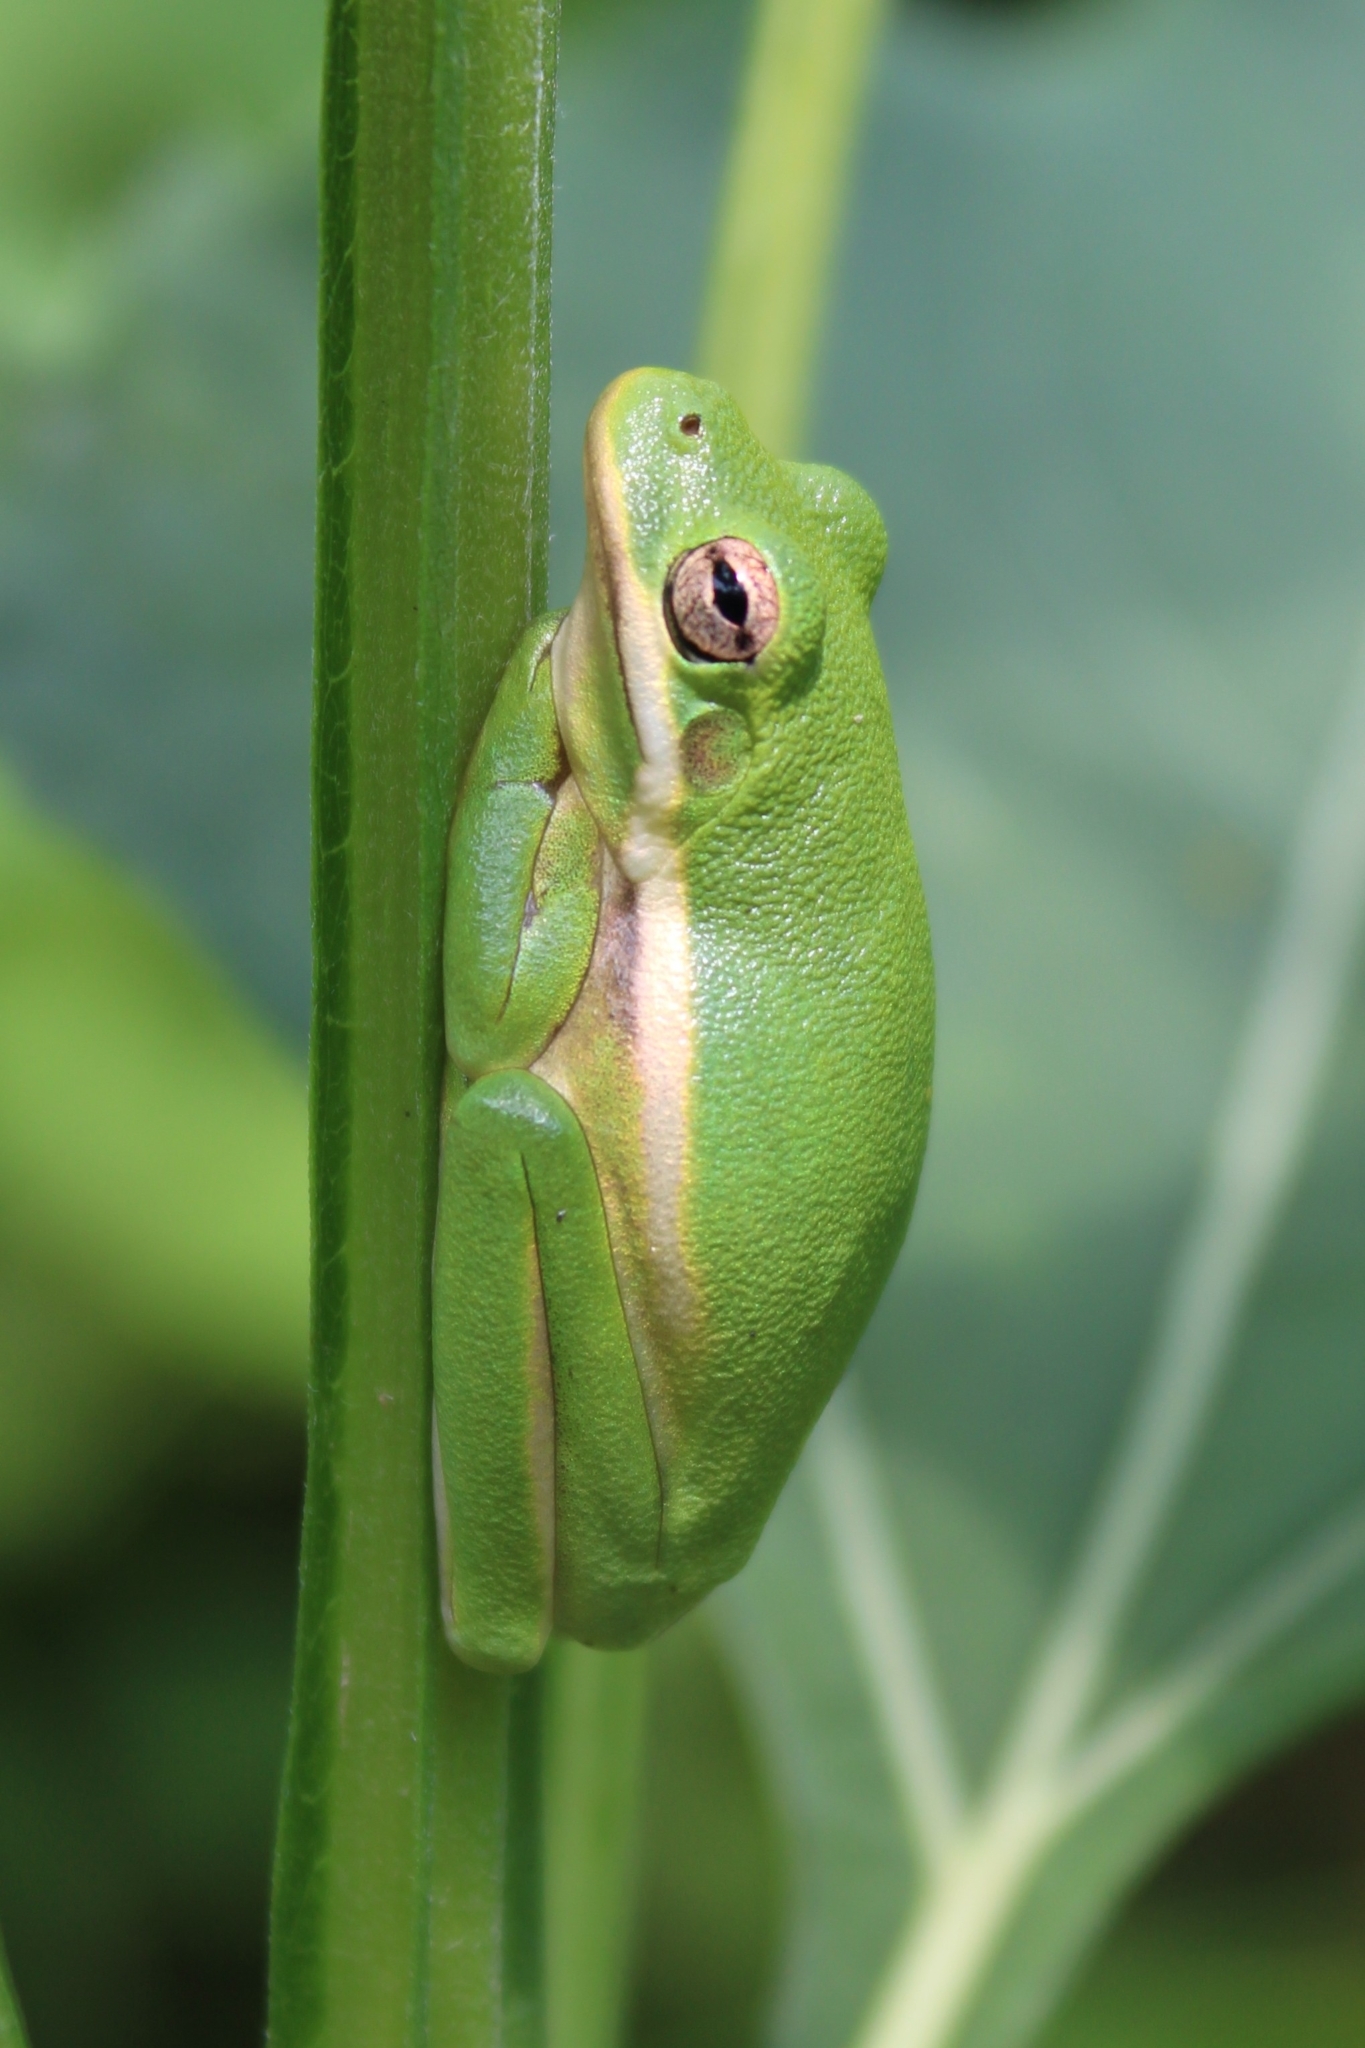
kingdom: Animalia
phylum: Chordata
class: Amphibia
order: Anura
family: Hylidae
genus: Dryophytes
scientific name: Dryophytes cinereus
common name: Green treefrog
